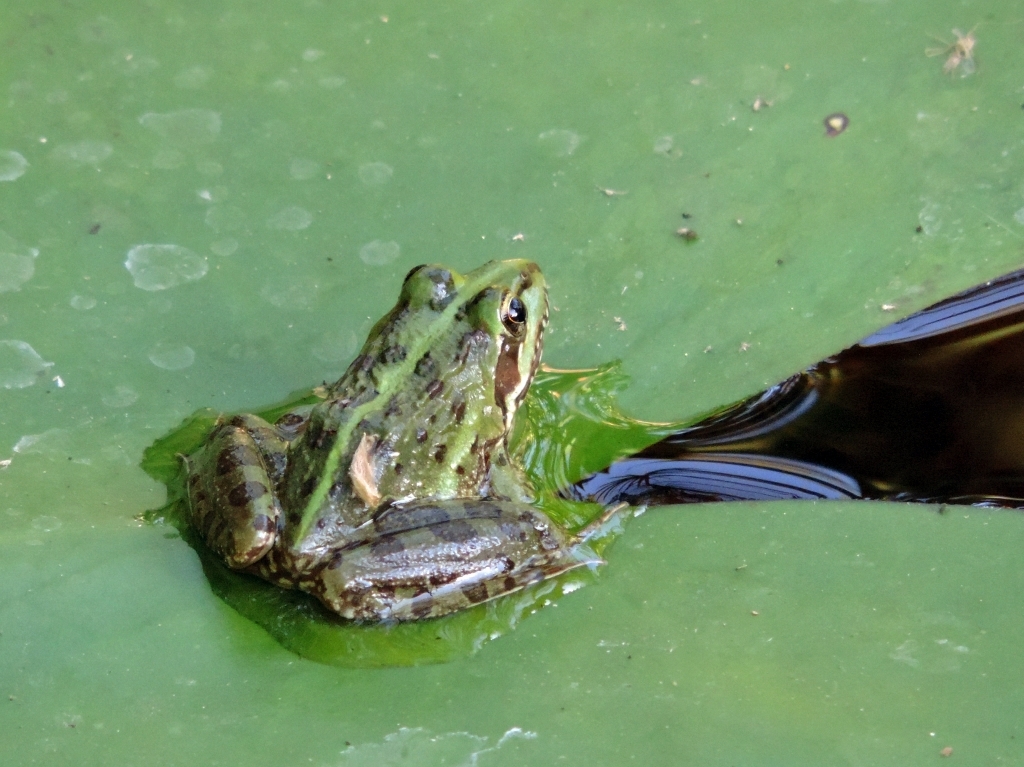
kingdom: Animalia
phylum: Chordata
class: Amphibia
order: Anura
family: Pyxicephalidae
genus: Amietia
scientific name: Amietia delalandii
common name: Delalande's river frog
